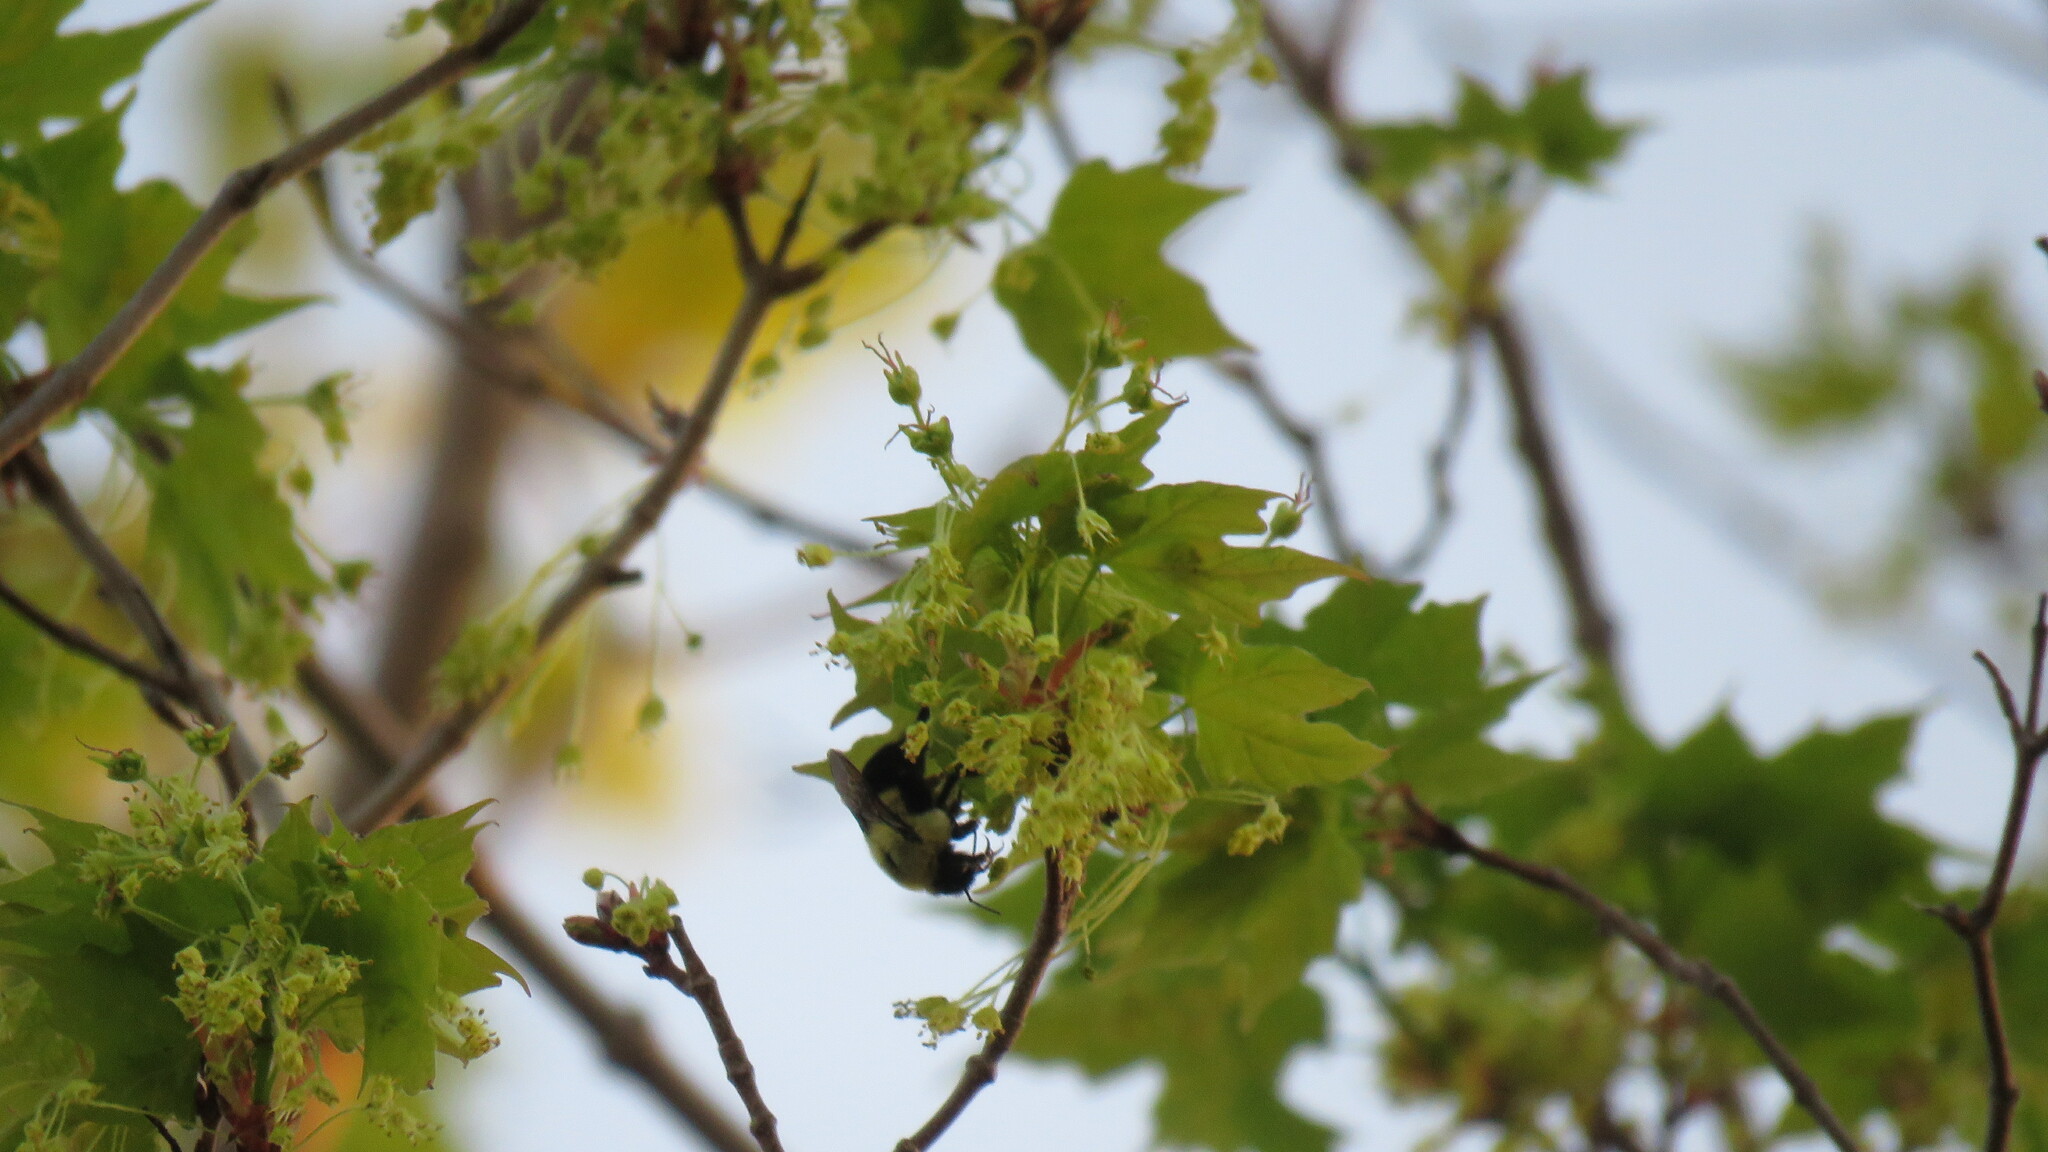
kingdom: Animalia
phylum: Arthropoda
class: Insecta
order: Hymenoptera
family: Apidae
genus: Bombus
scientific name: Bombus impatiens
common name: Common eastern bumble bee
